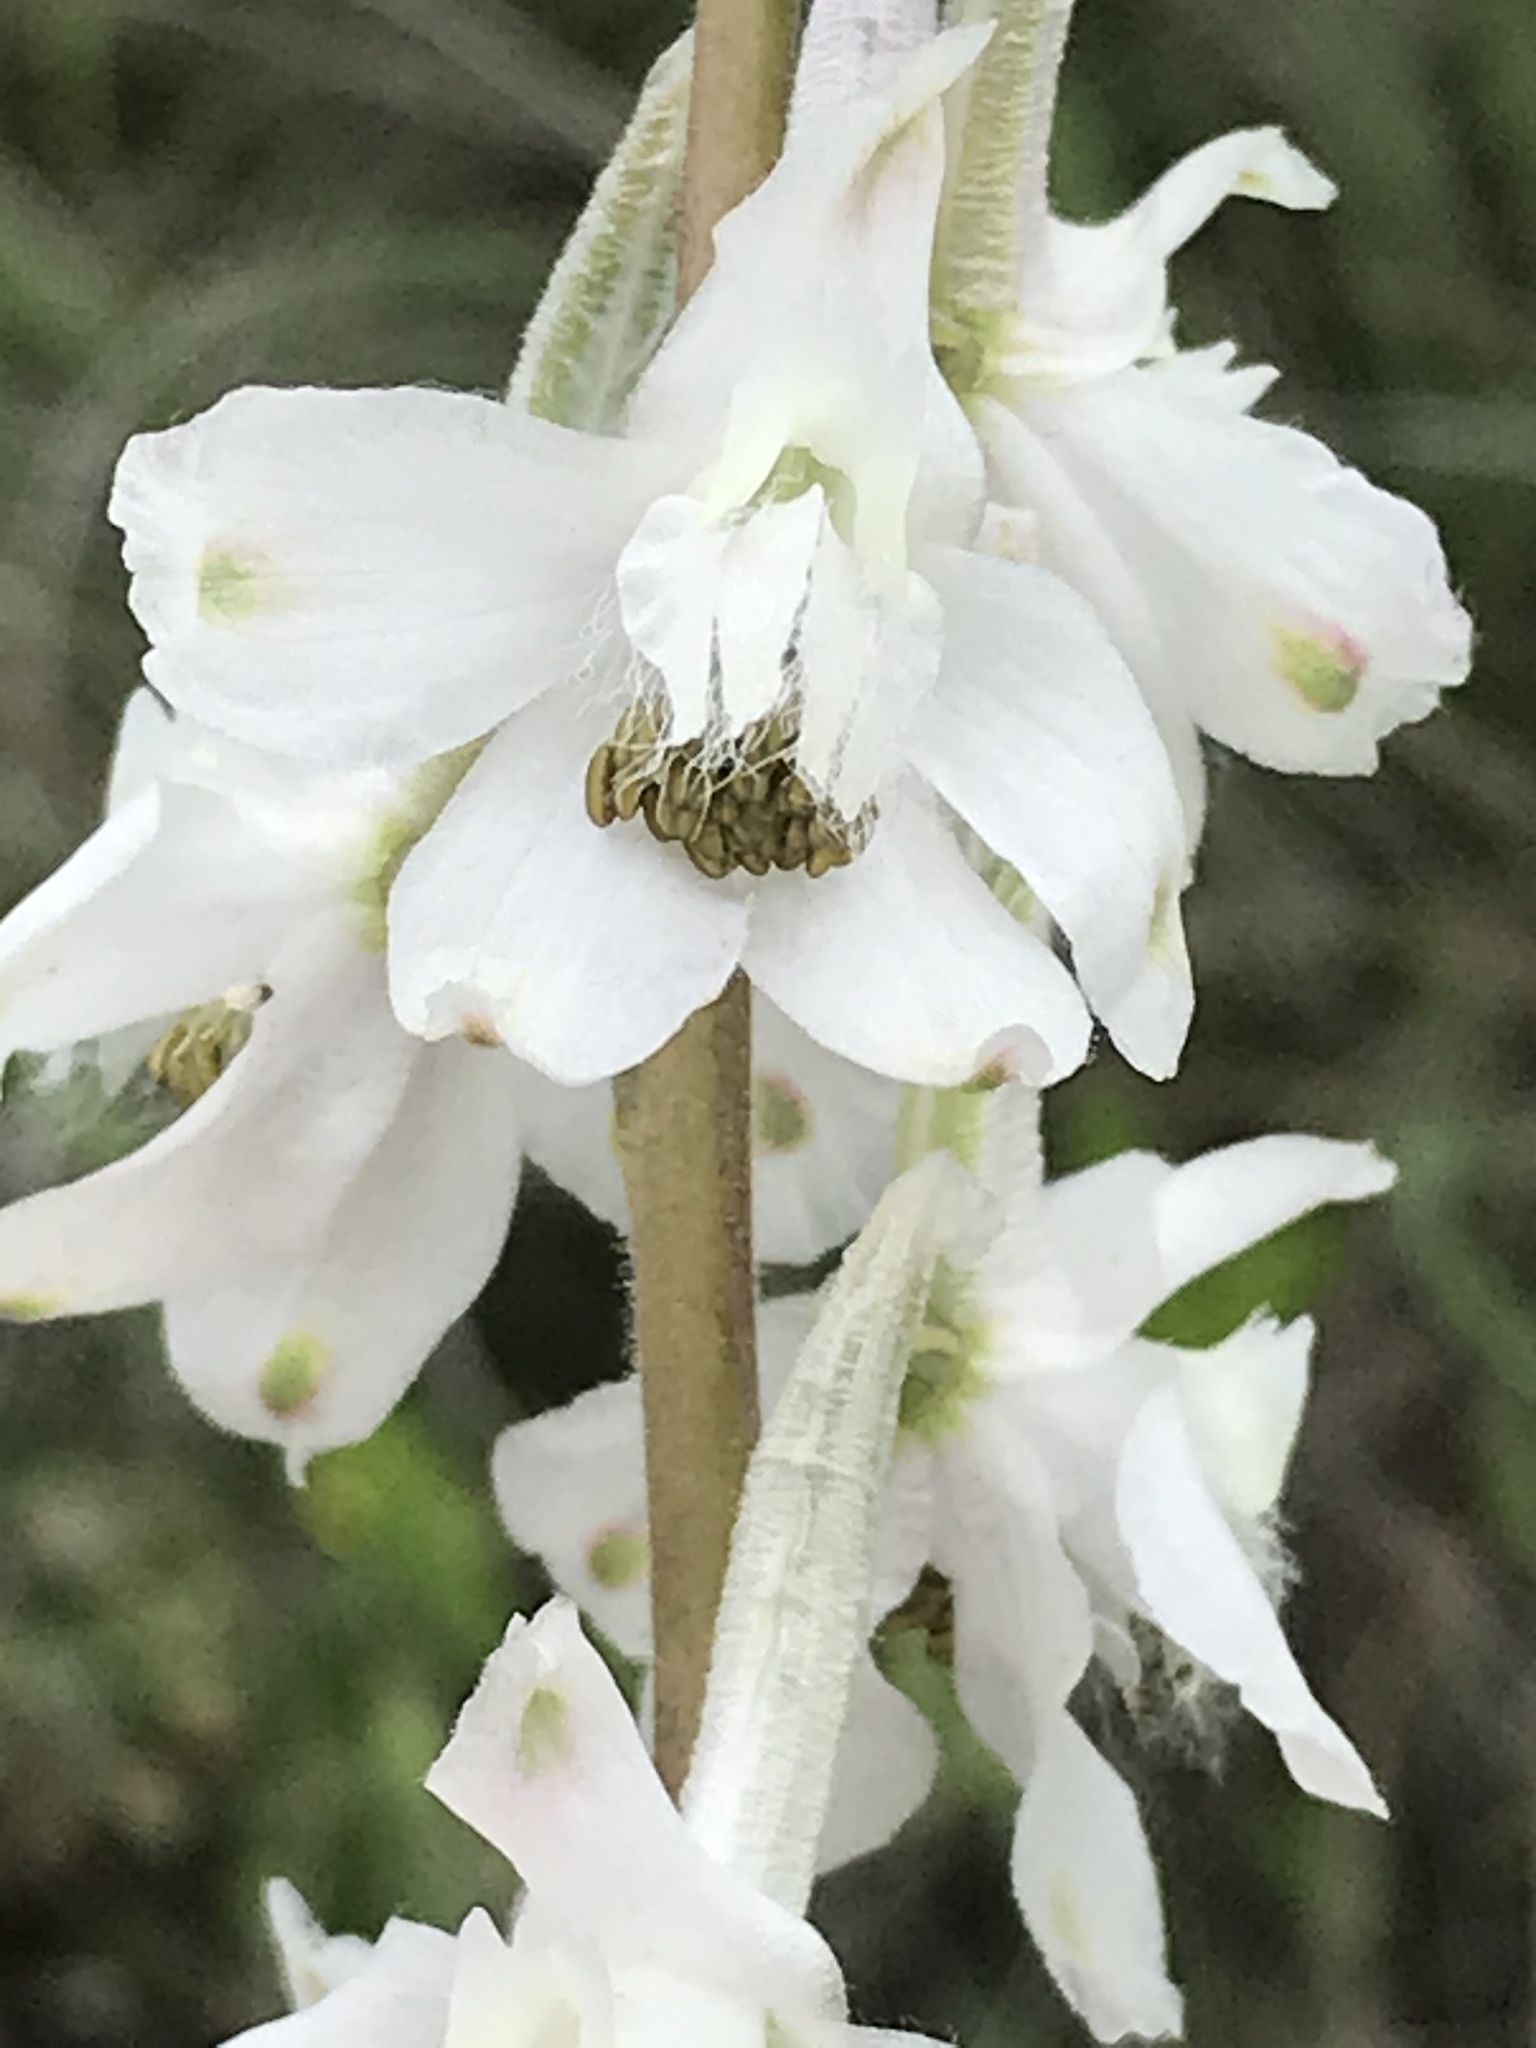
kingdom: Plantae
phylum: Tracheophyta
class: Magnoliopsida
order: Ranunculales
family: Ranunculaceae
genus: Delphinium
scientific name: Delphinium carolinianum
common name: Carolina larkspur
